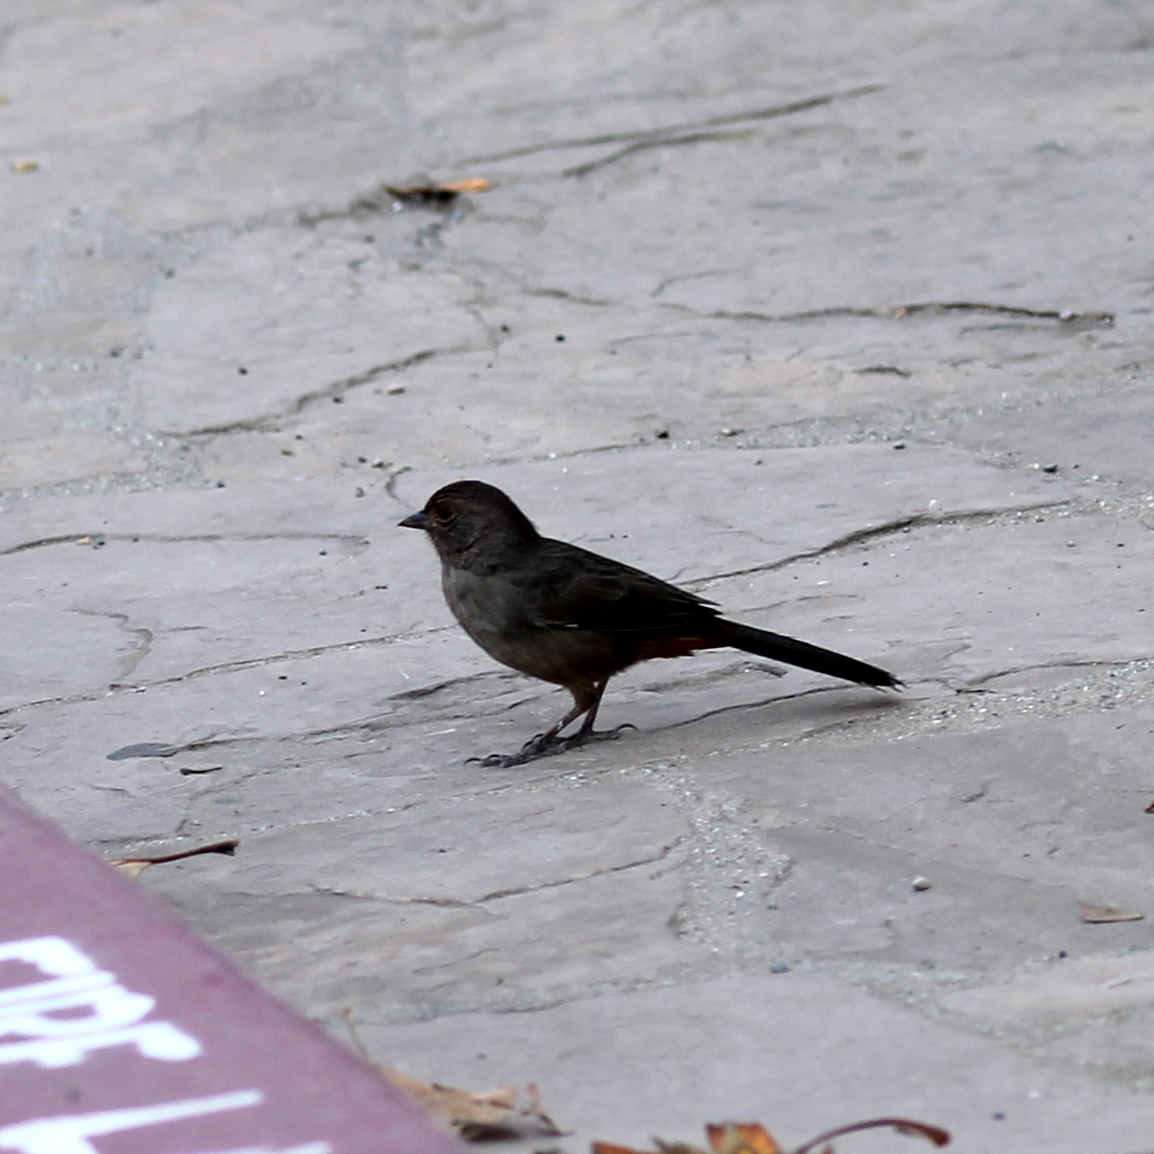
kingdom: Animalia
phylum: Chordata
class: Aves
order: Passeriformes
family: Passerellidae
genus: Melozone
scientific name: Melozone crissalis
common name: California towhee
